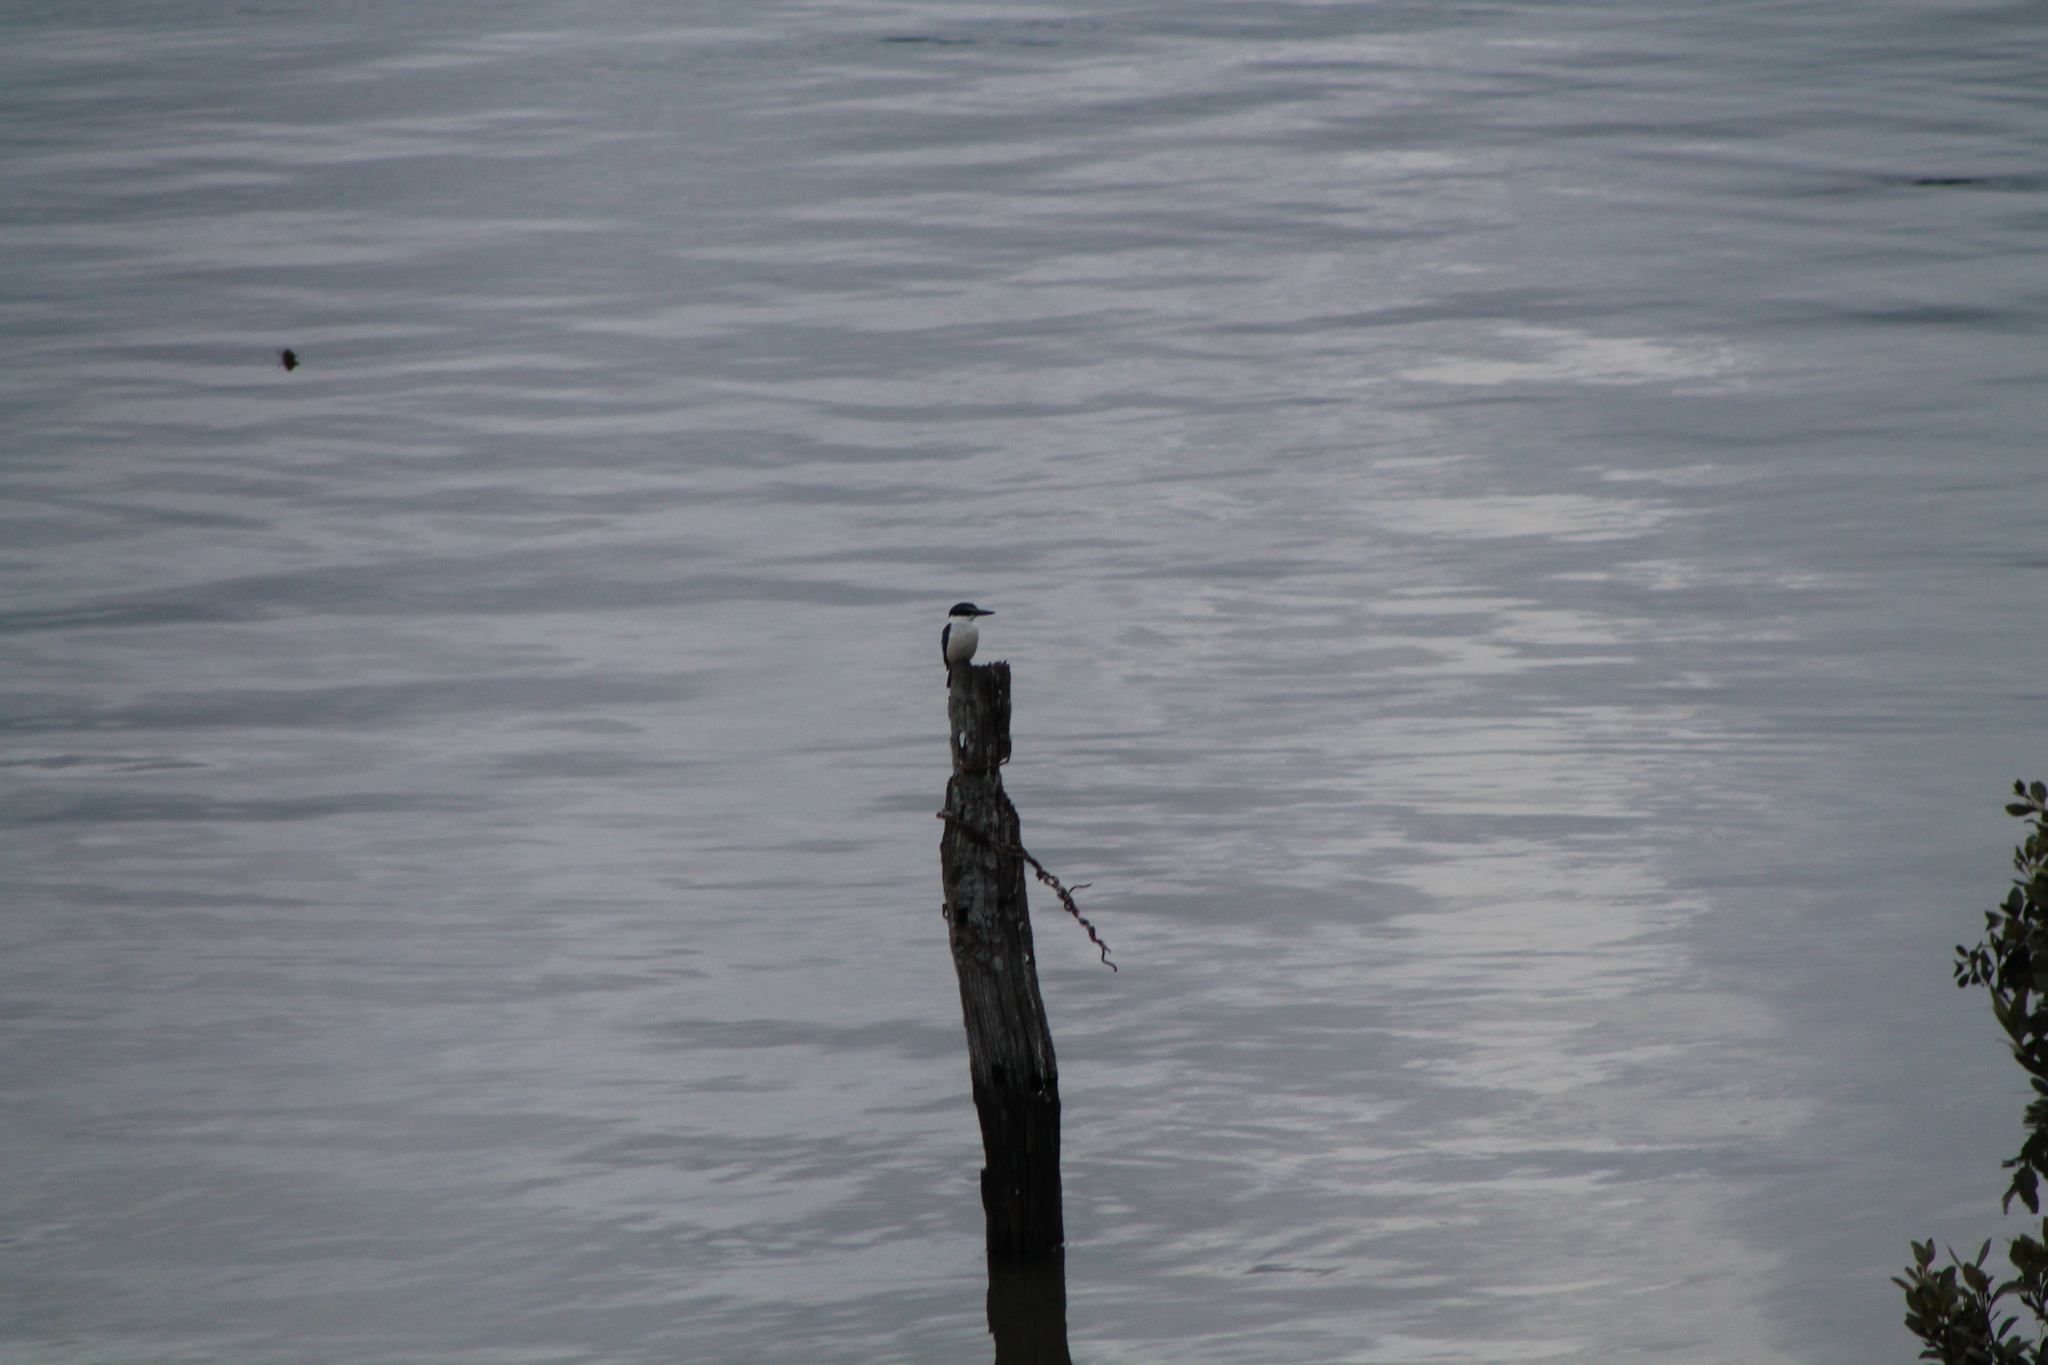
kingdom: Animalia
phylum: Chordata
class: Aves
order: Coraciiformes
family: Alcedinidae
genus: Todiramphus
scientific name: Todiramphus sanctus
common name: Sacred kingfisher
